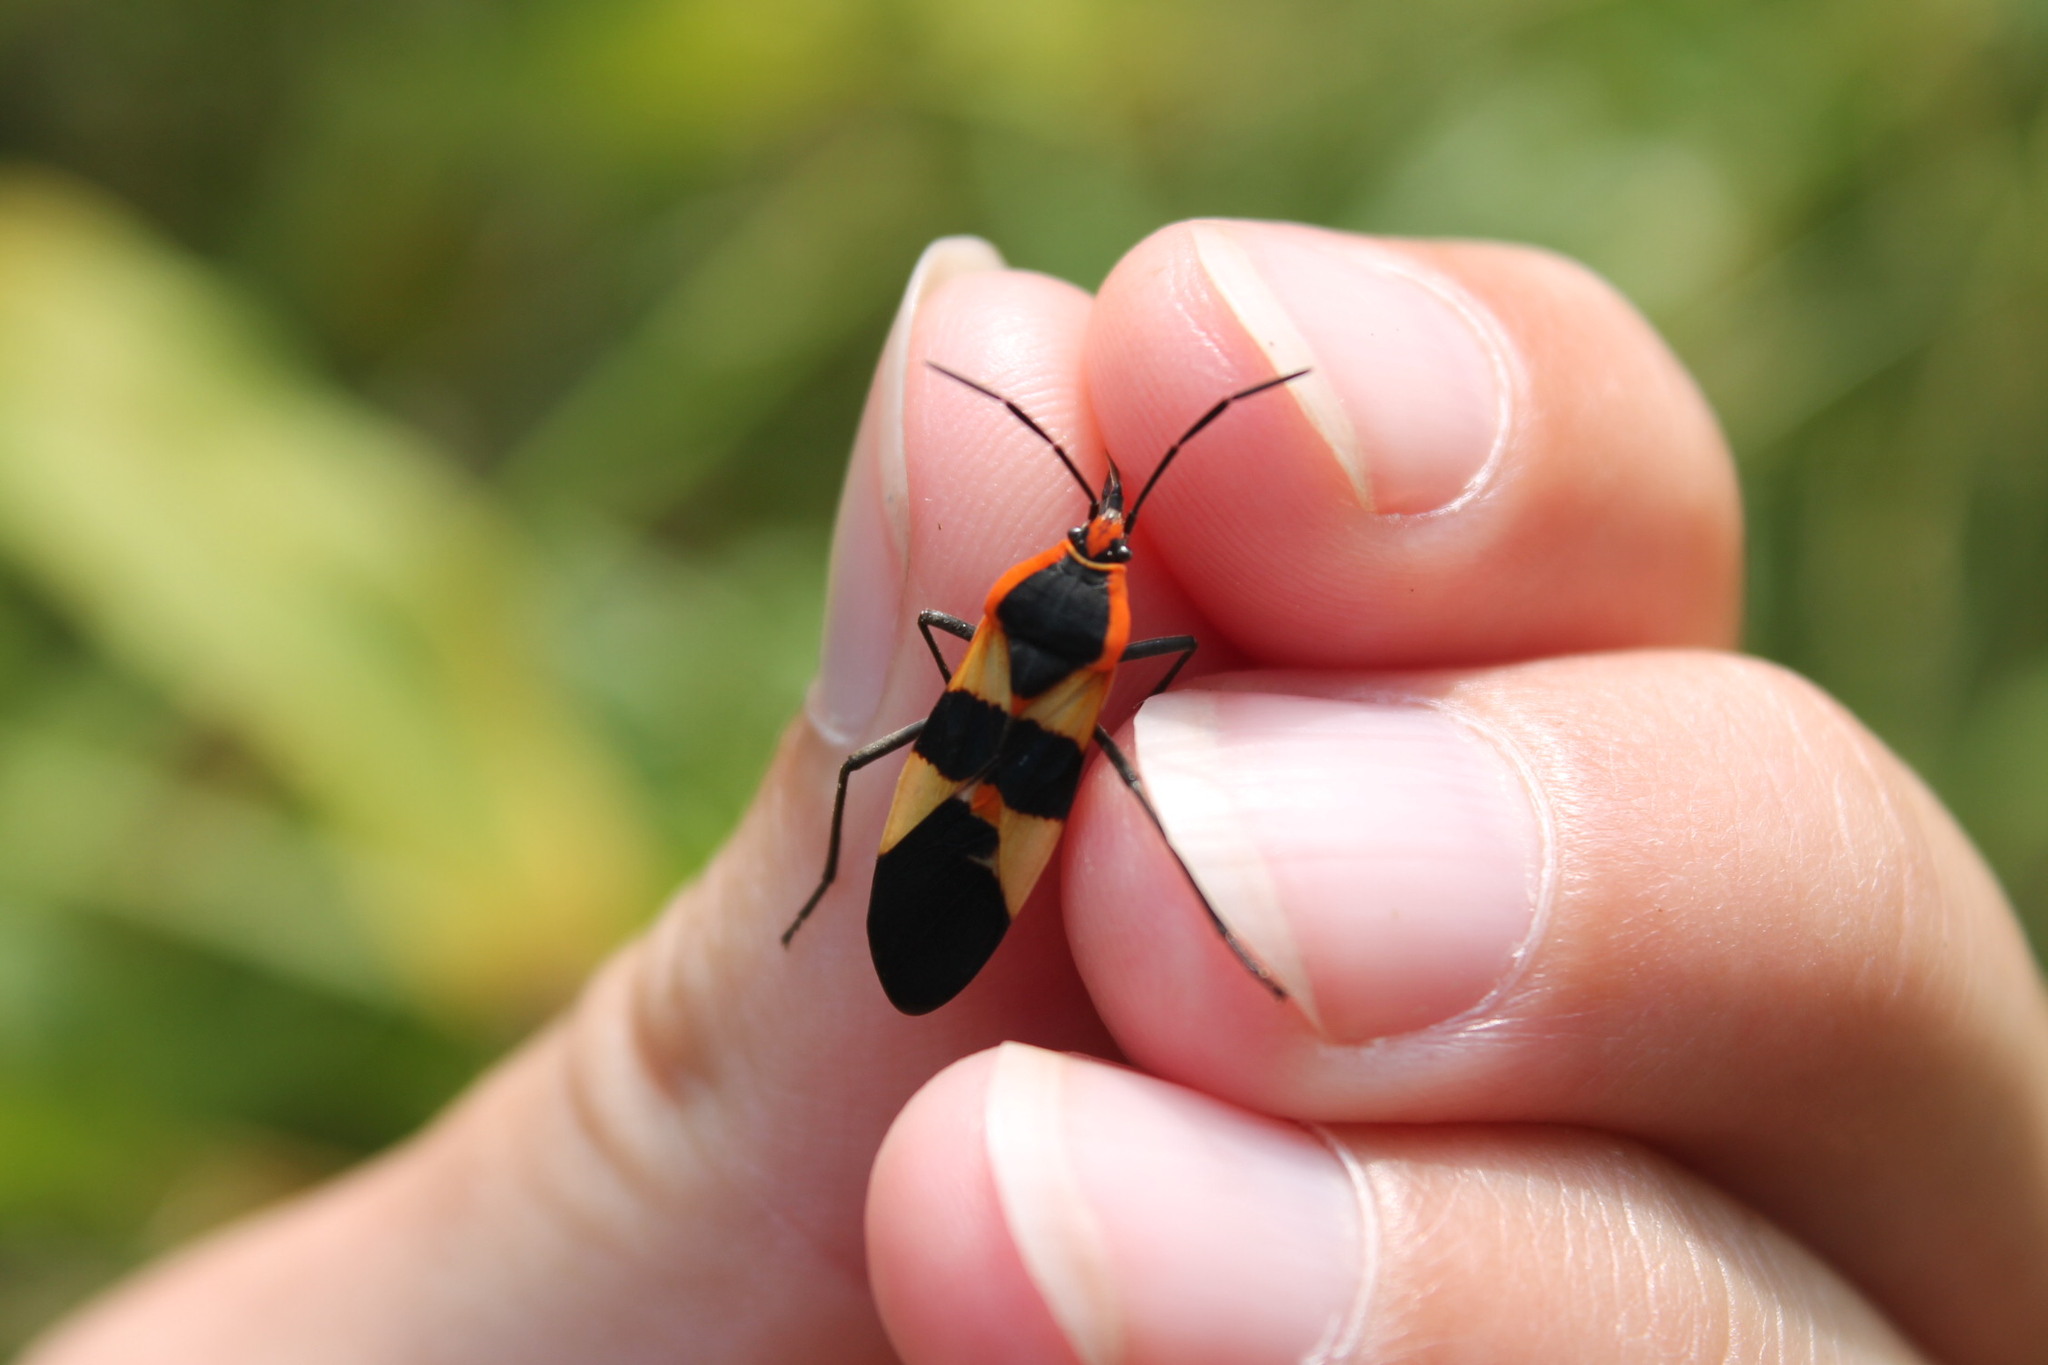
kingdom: Animalia
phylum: Arthropoda
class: Insecta
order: Hemiptera
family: Lygaeidae
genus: Oncopeltus
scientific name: Oncopeltus fasciatus
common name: Large milkweed bug
